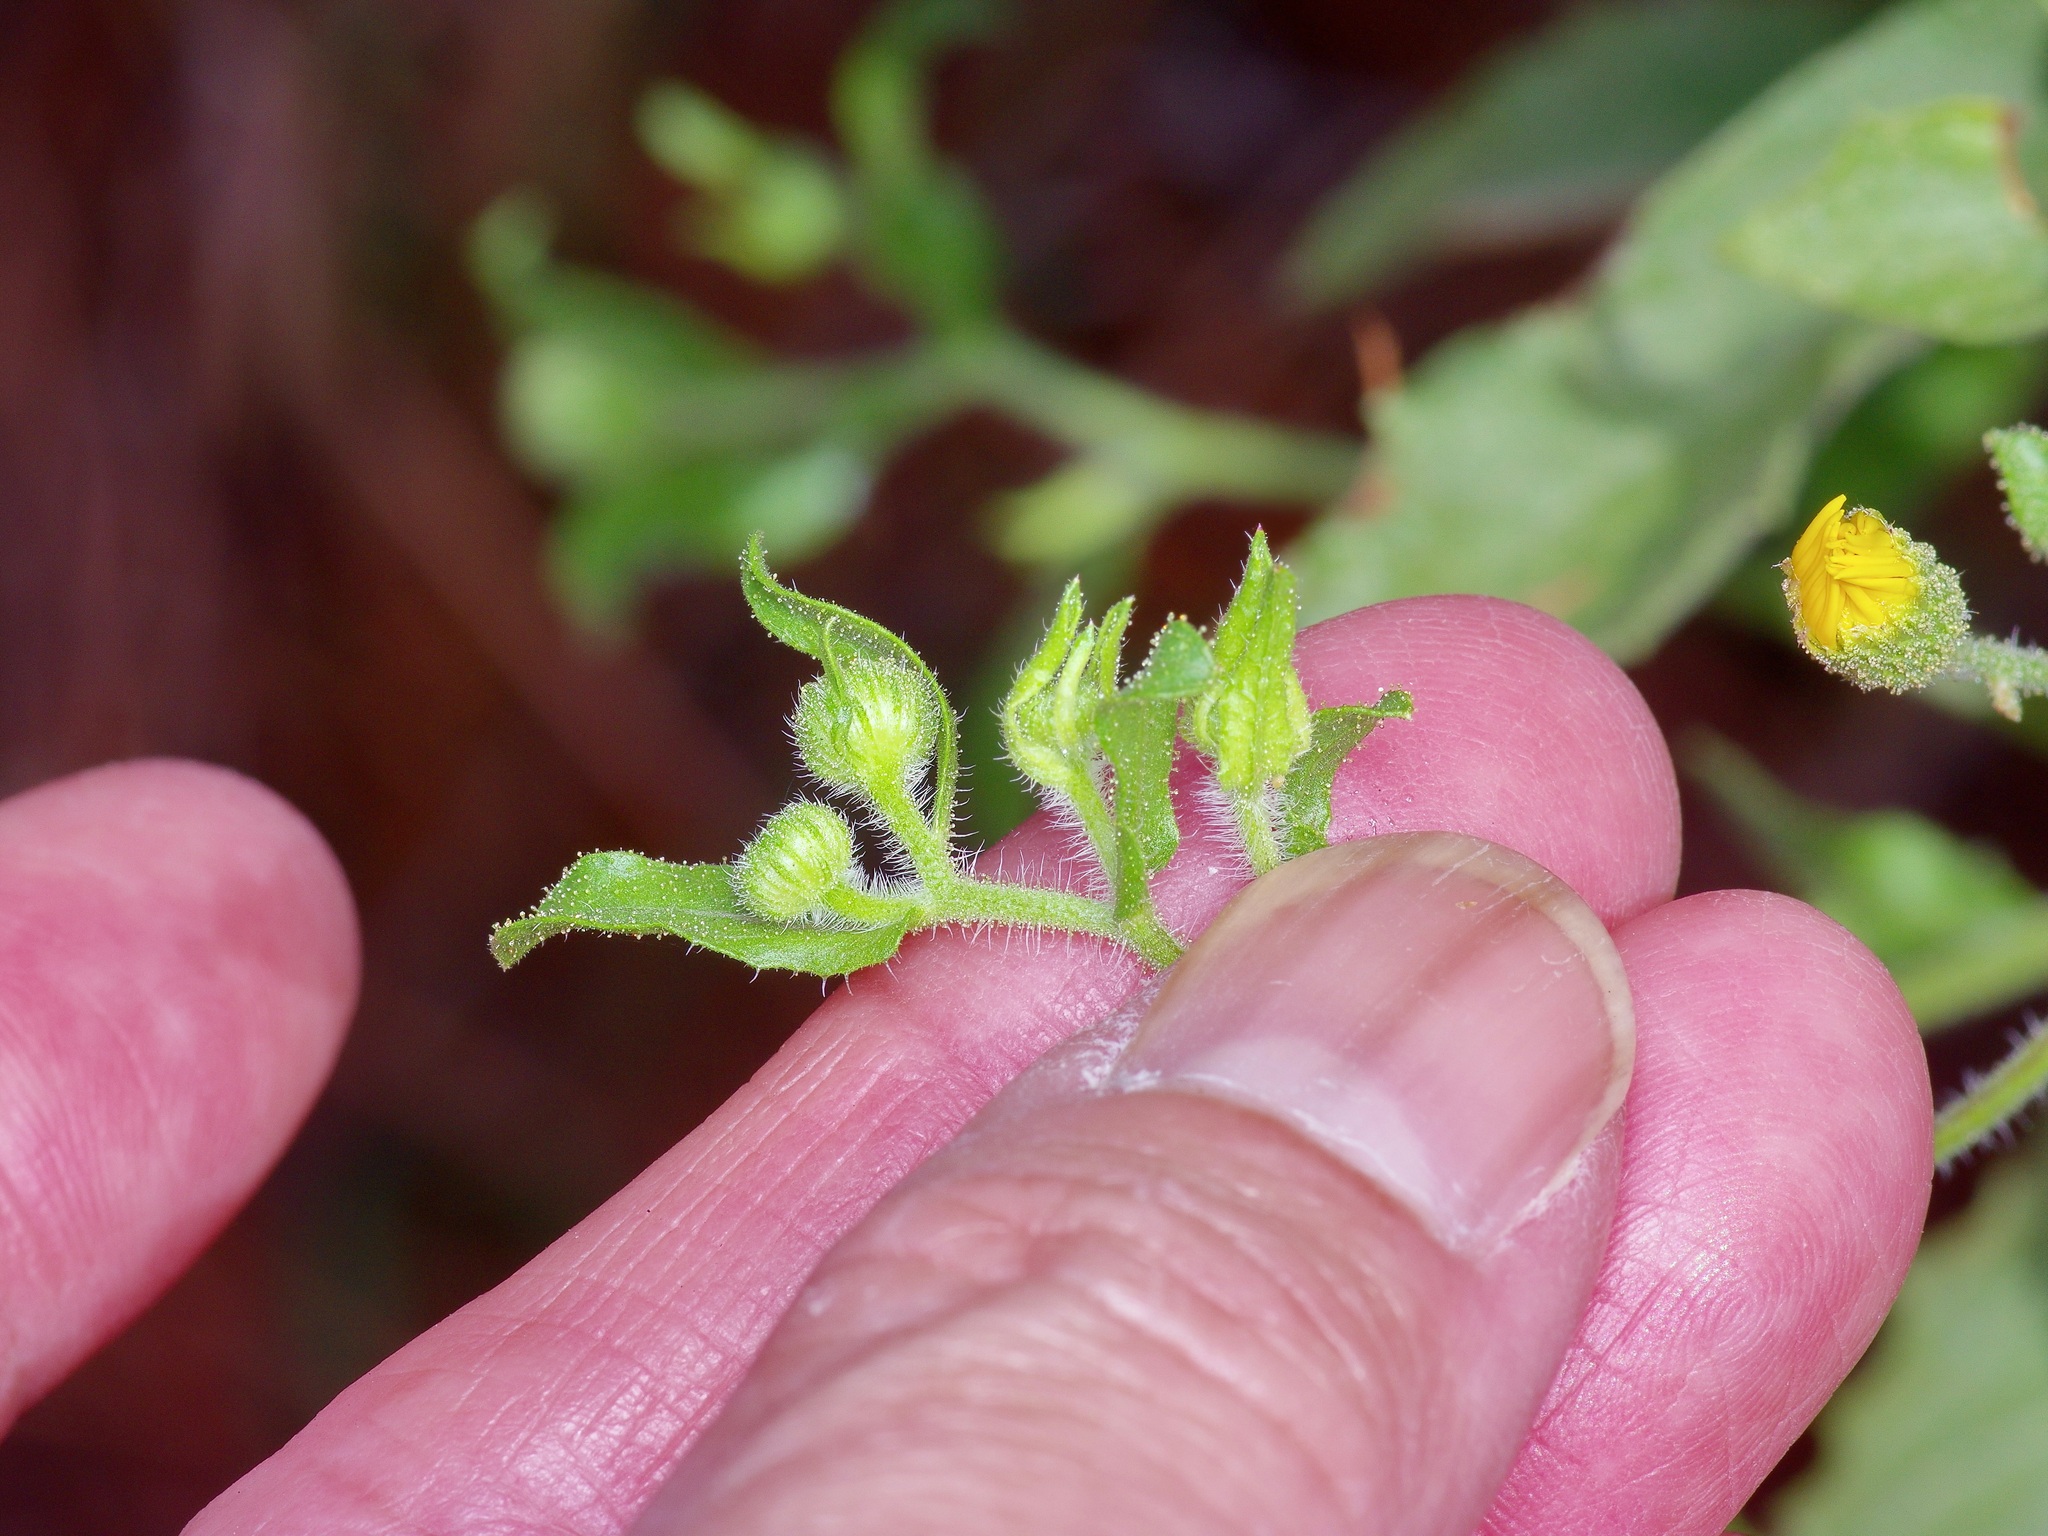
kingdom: Plantae
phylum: Tracheophyta
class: Magnoliopsida
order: Asterales
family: Asteraceae
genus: Heterotheca
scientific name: Heterotheca subaxillaris
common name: Camphorweed
